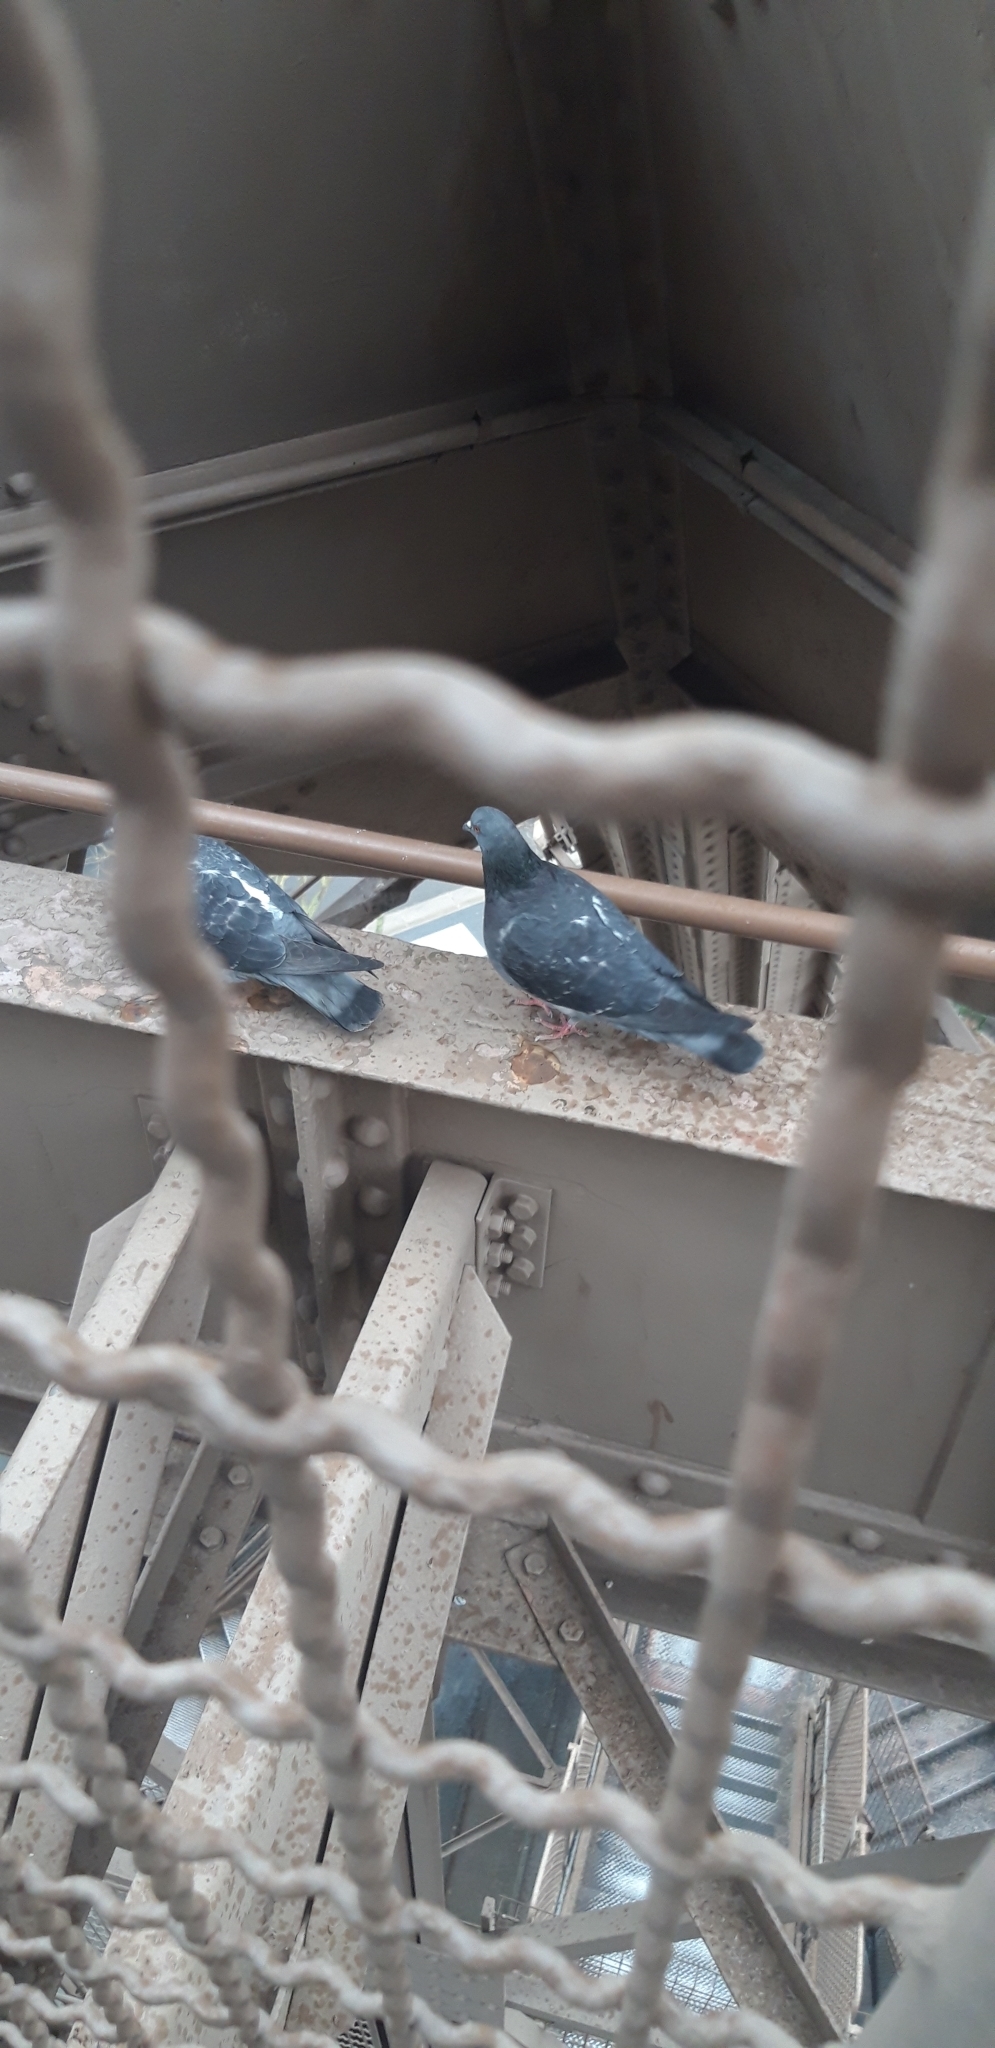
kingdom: Animalia
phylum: Chordata
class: Aves
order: Columbiformes
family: Columbidae
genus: Columba
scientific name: Columba livia
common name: Rock pigeon
